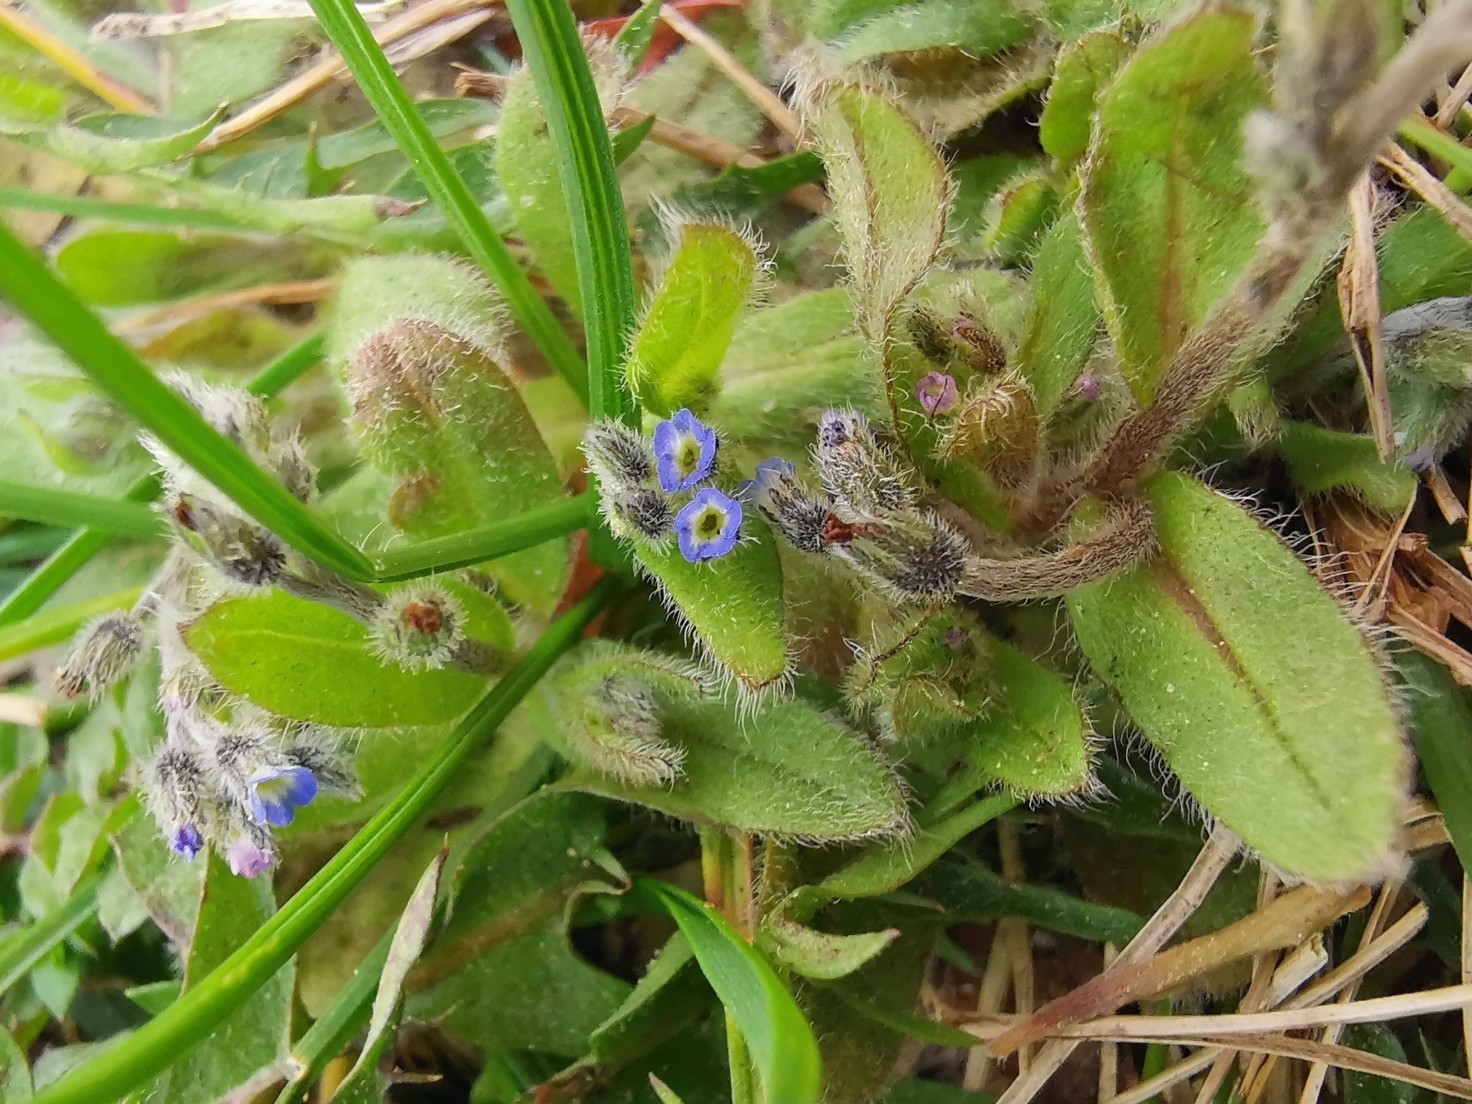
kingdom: Plantae
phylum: Tracheophyta
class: Magnoliopsida
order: Boraginales
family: Boraginaceae
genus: Myosotis
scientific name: Myosotis ramosissima
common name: Early forget-me-not
